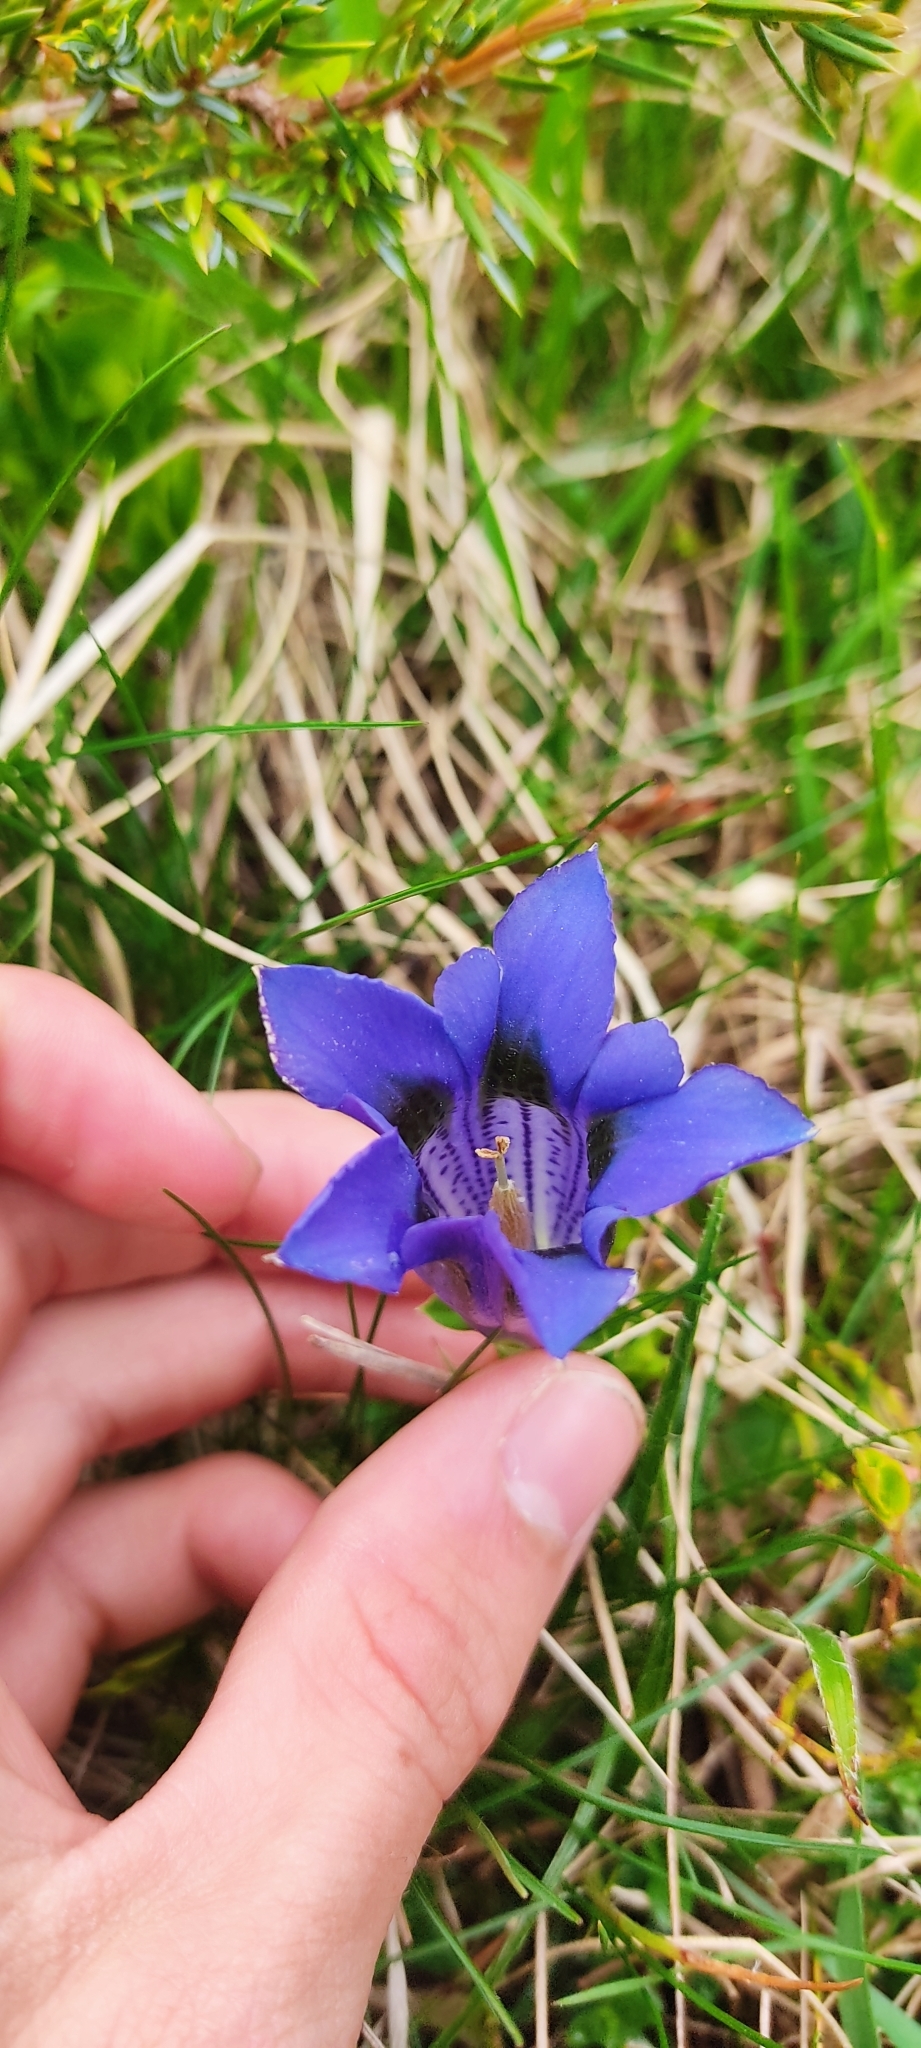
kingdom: Plantae
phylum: Tracheophyta
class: Magnoliopsida
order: Gentianales
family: Gentianaceae
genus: Gentiana
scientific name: Gentiana acaulis
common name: Trumpet gentian
